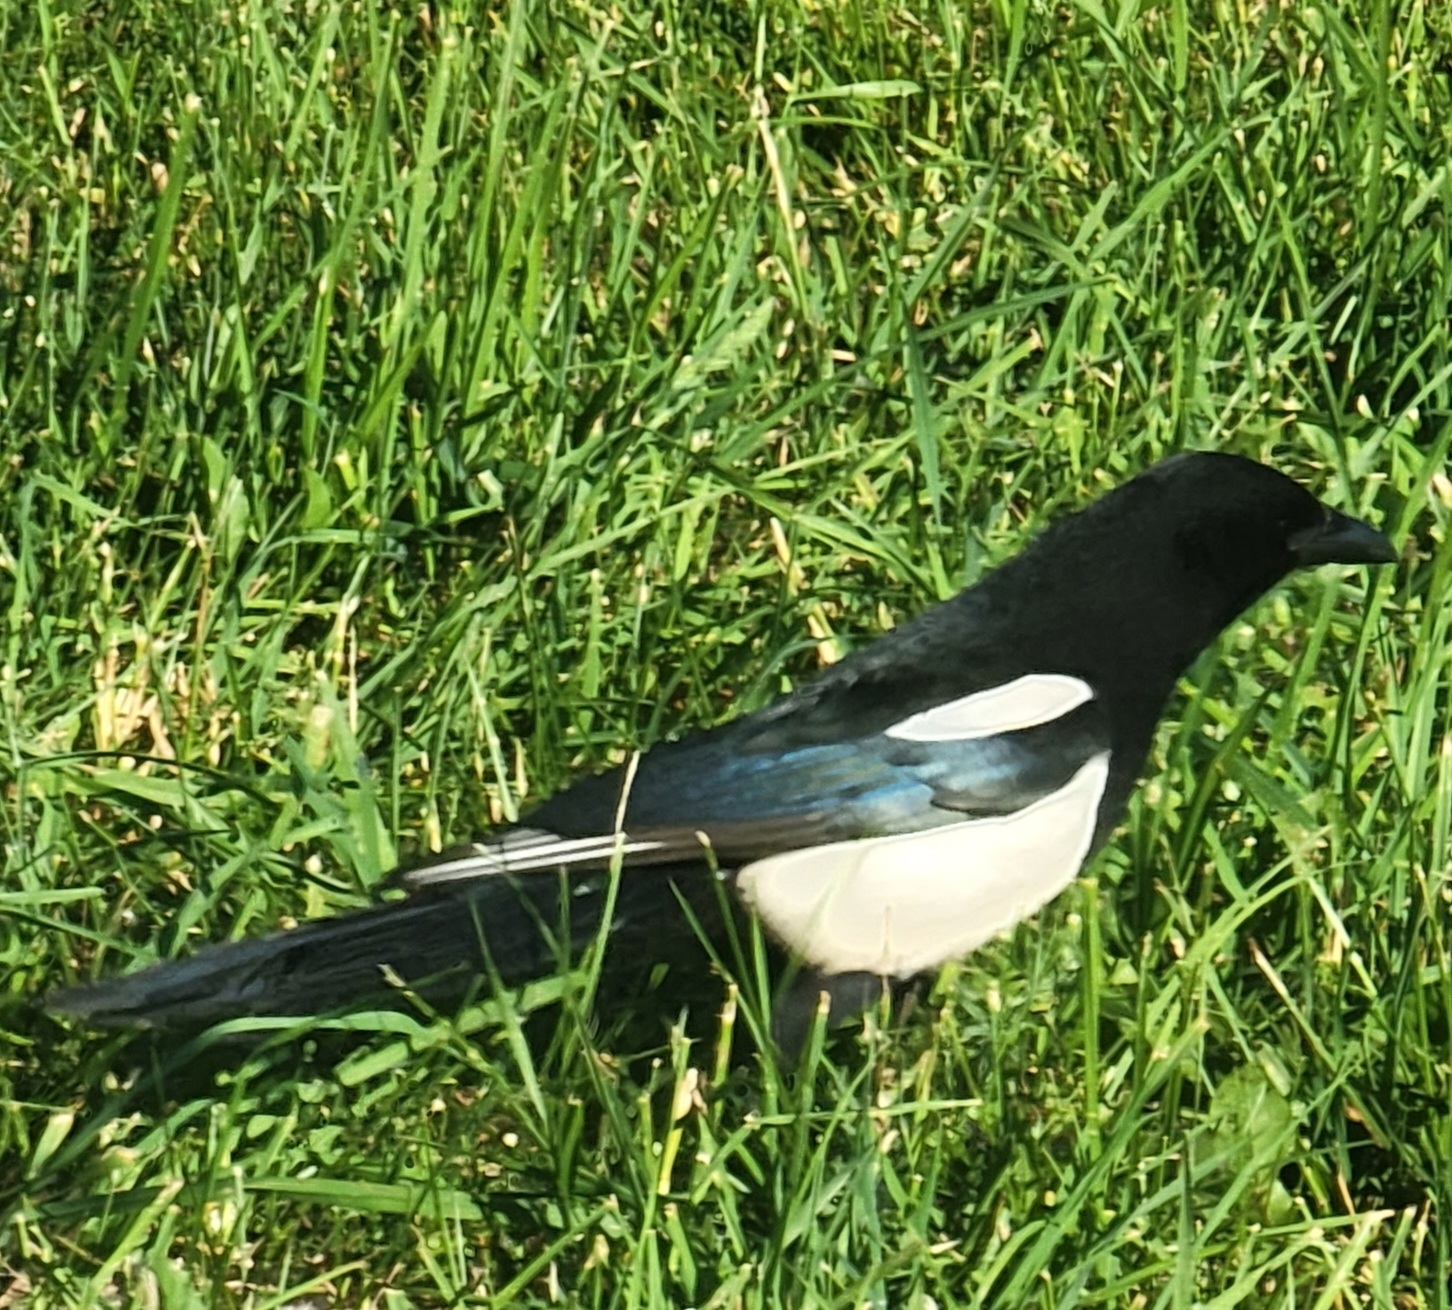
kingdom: Animalia
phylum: Chordata
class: Aves
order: Passeriformes
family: Corvidae
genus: Pica
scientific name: Pica hudsonia
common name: Black-billed magpie
